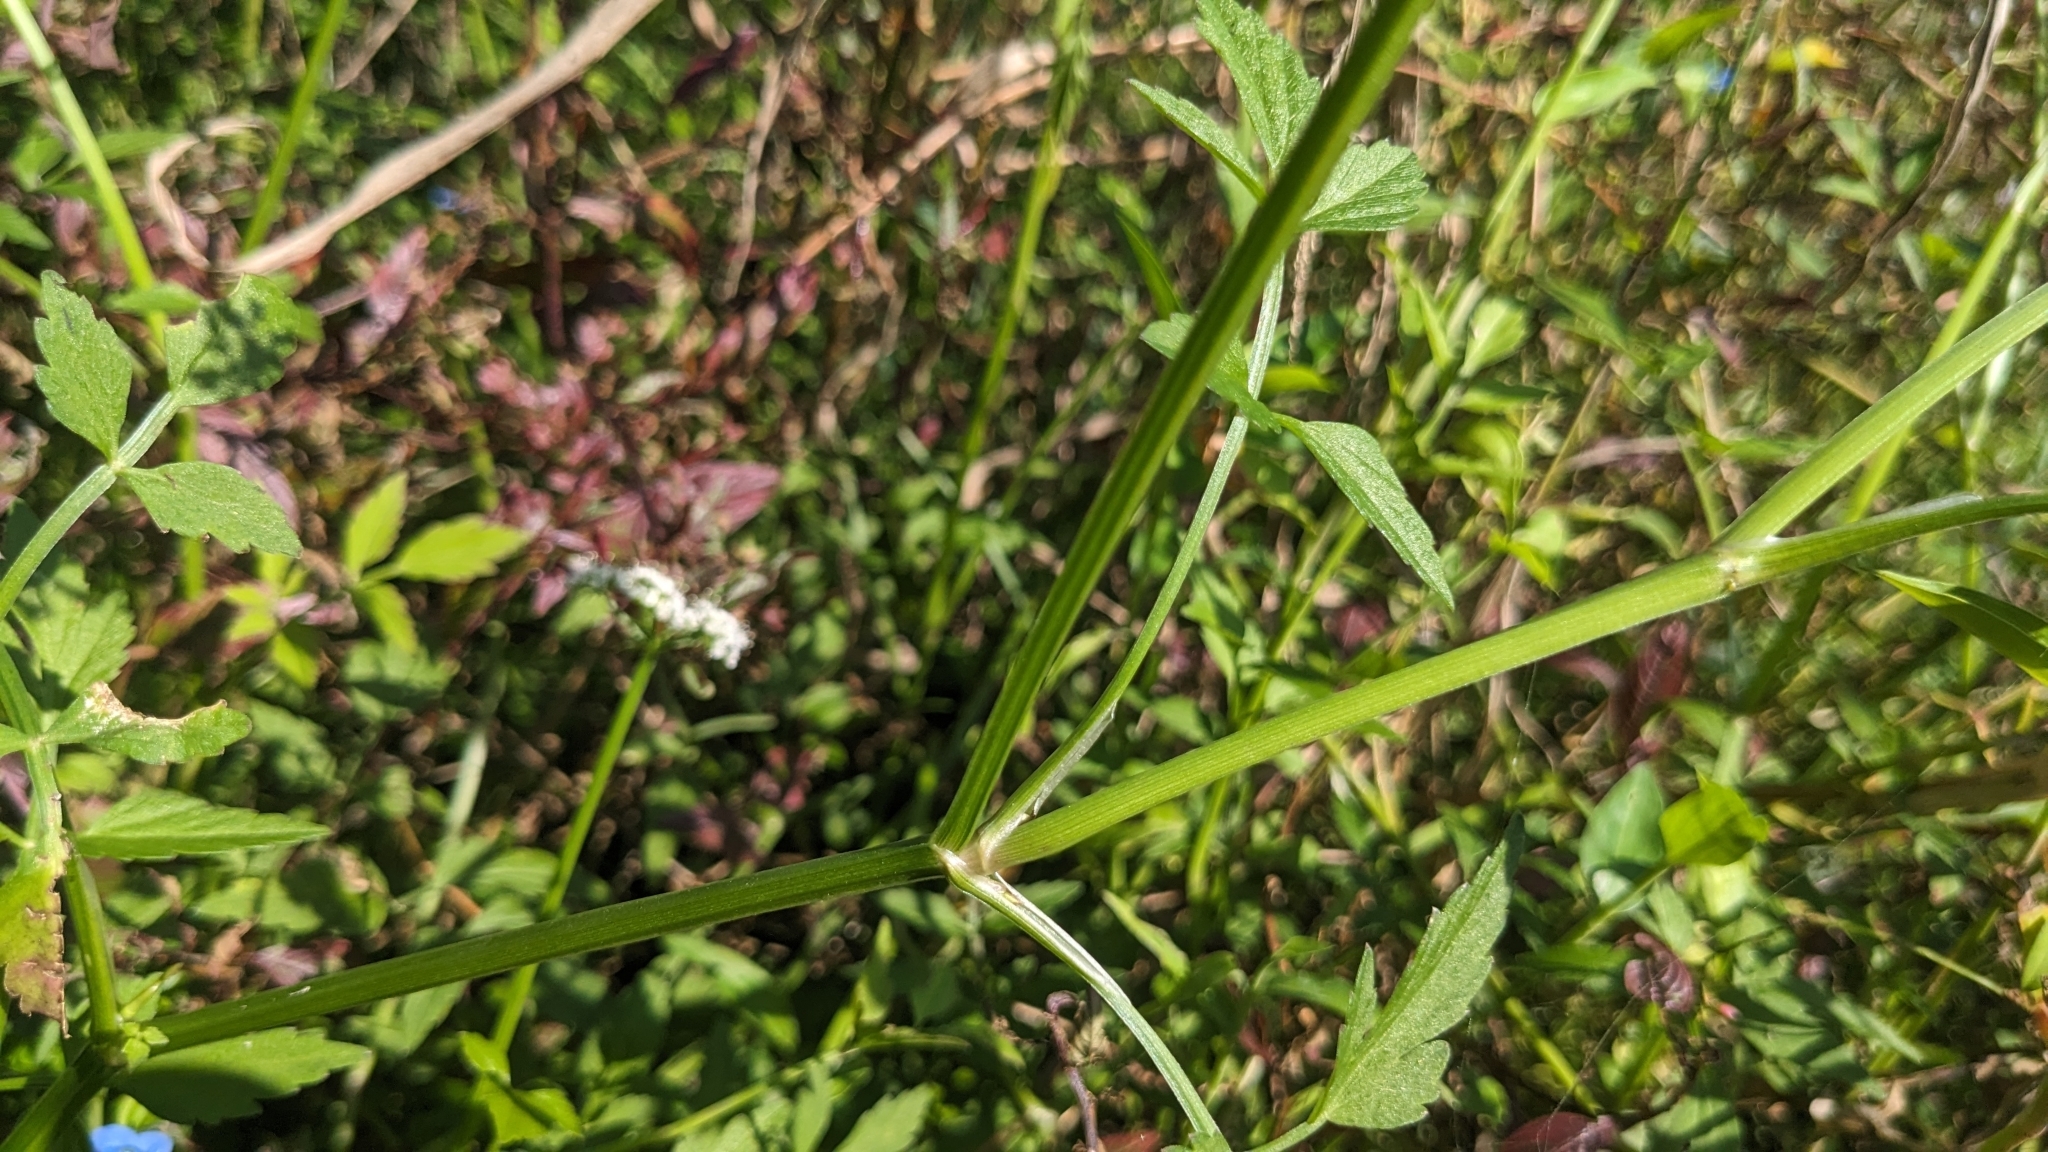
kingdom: Plantae
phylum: Tracheophyta
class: Magnoliopsida
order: Apiales
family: Apiaceae
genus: Oenanthe
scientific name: Oenanthe javanica
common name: Java water-dropwort
